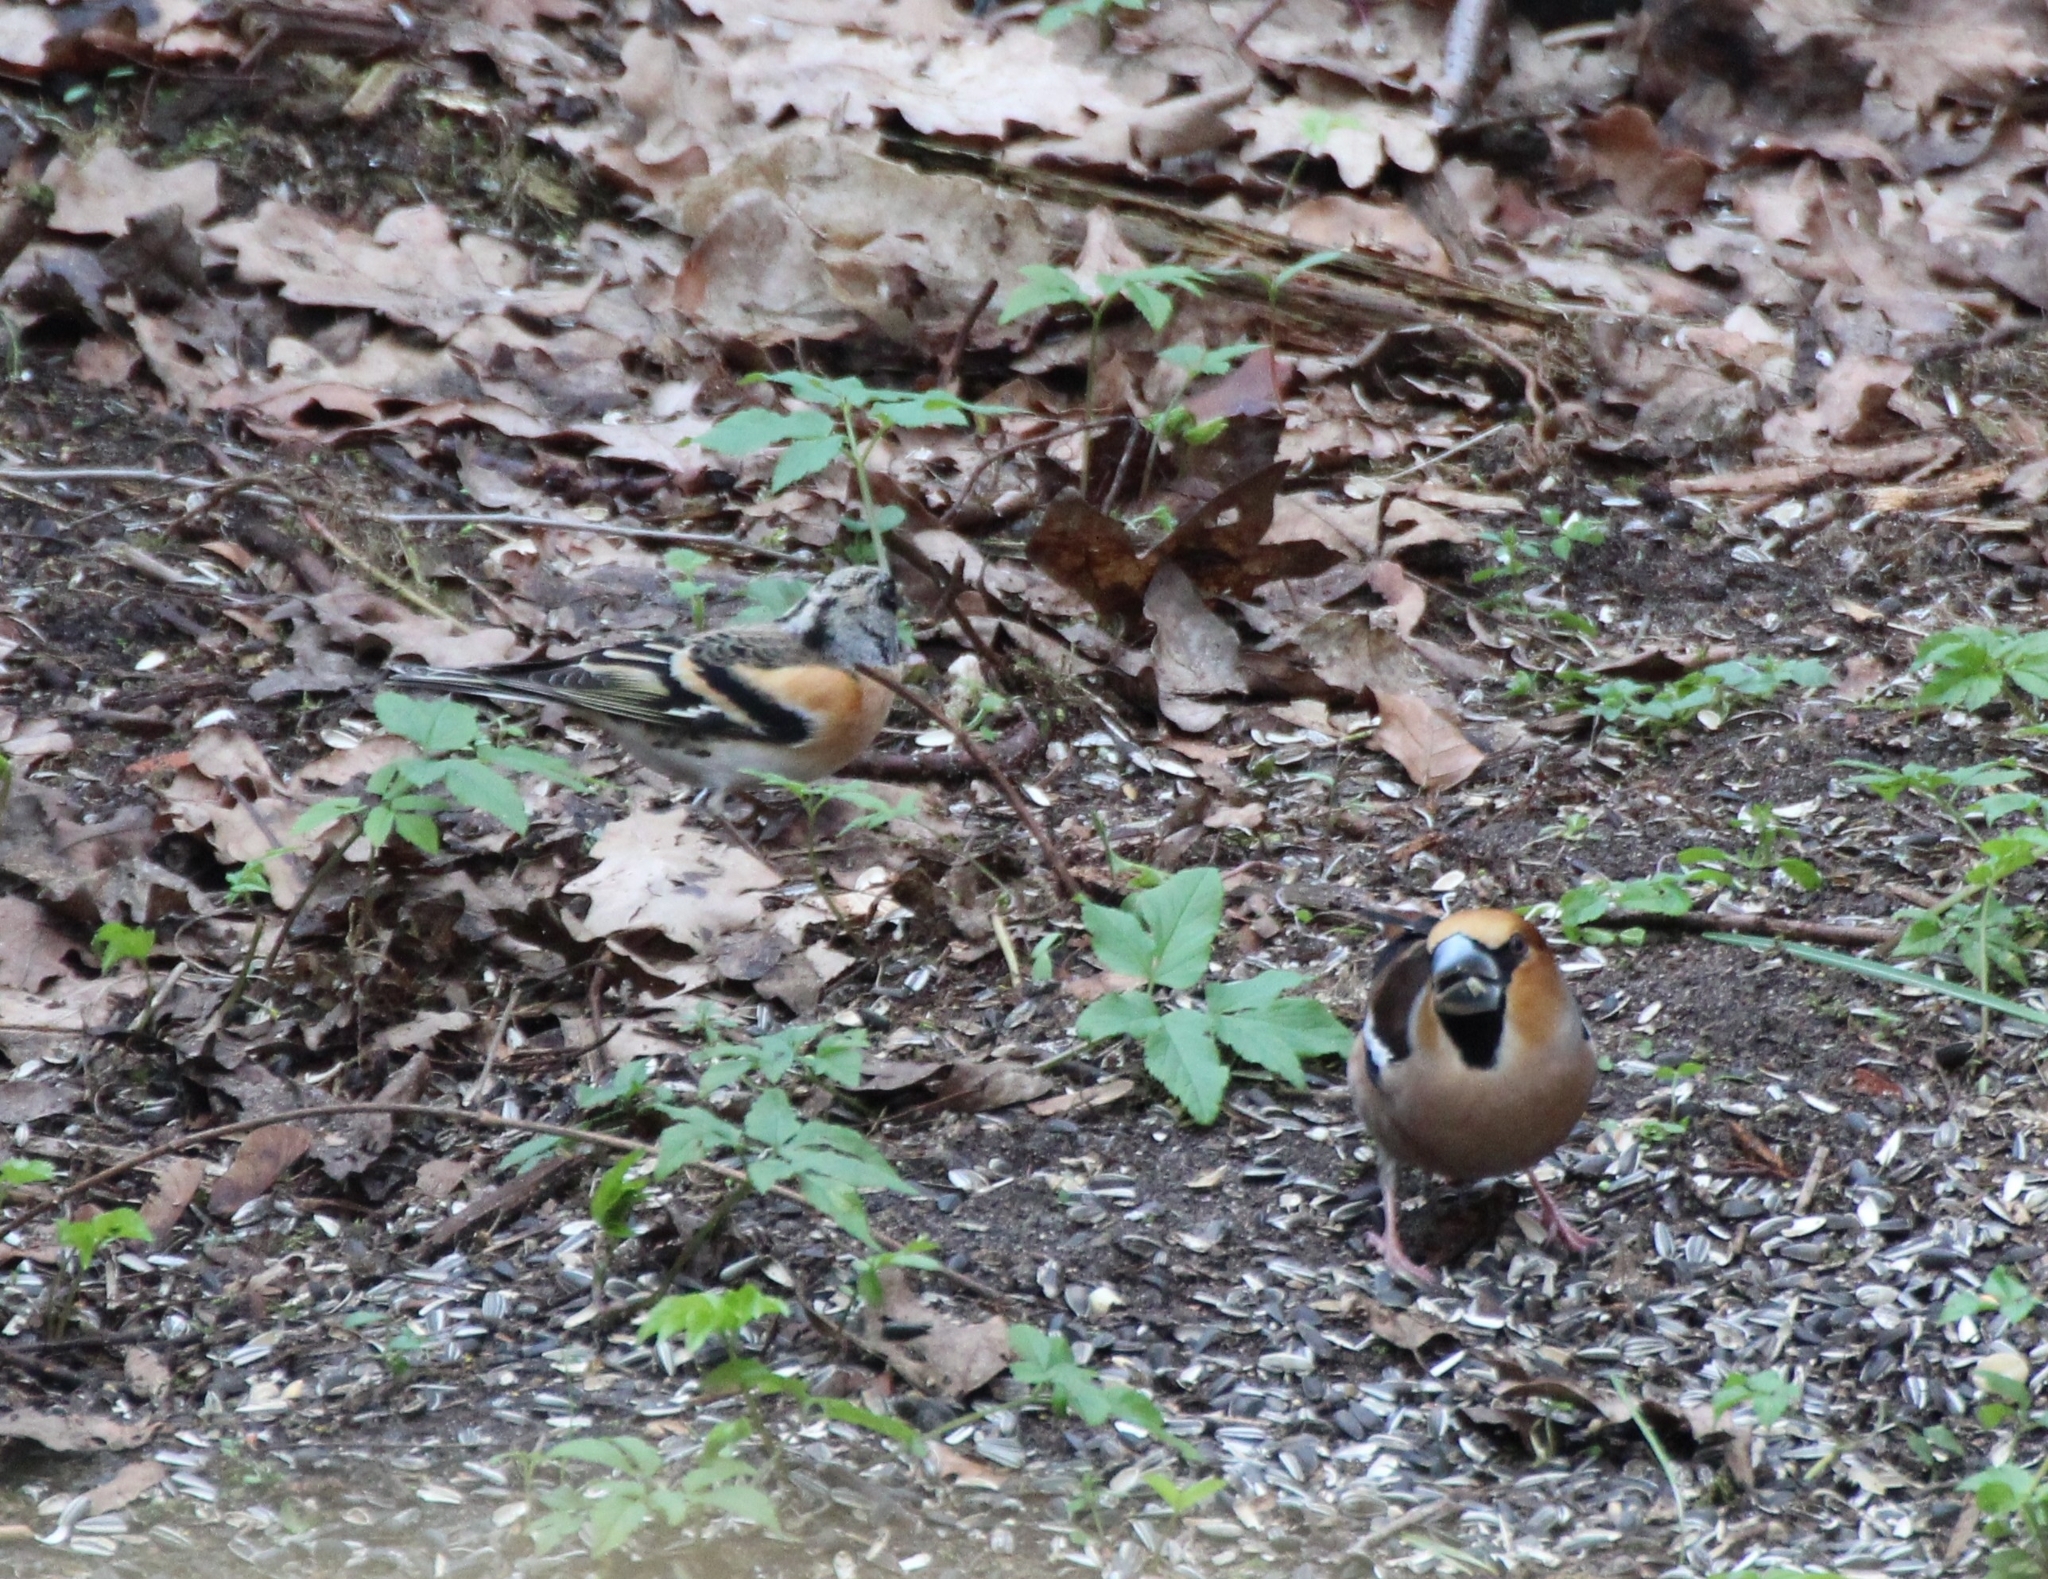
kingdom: Animalia
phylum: Chordata
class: Aves
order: Passeriformes
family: Fringillidae
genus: Fringilla
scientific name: Fringilla montifringilla
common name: Brambling
